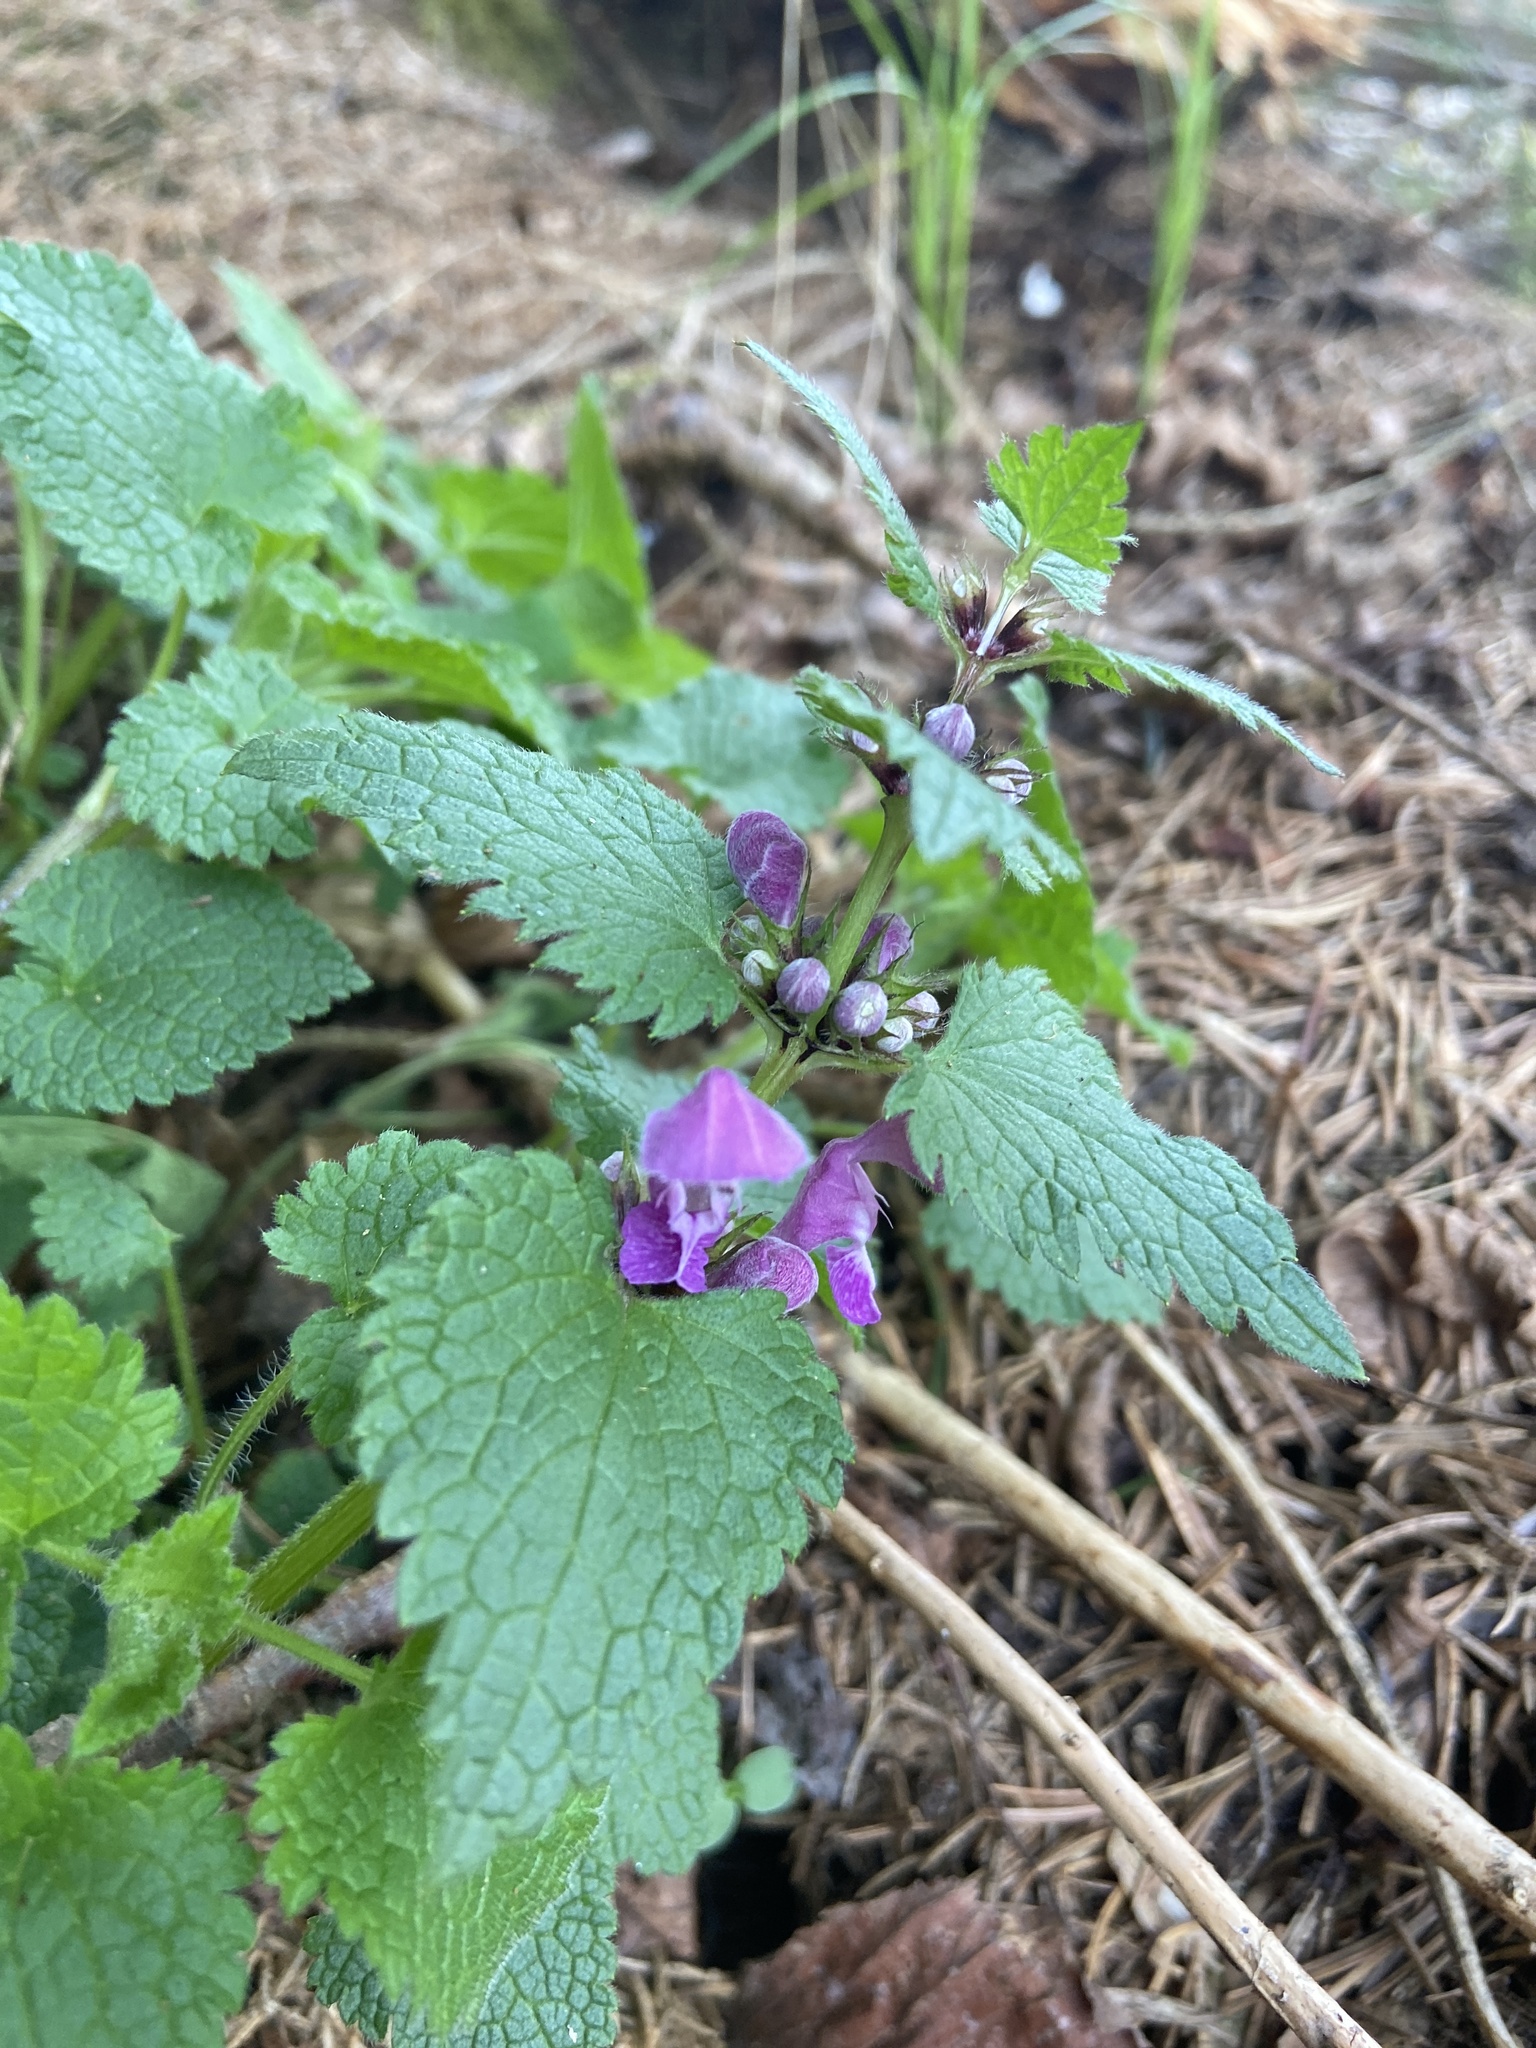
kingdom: Plantae
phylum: Tracheophyta
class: Magnoliopsida
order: Lamiales
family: Lamiaceae
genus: Lamium
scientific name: Lamium maculatum
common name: Spotted dead-nettle
